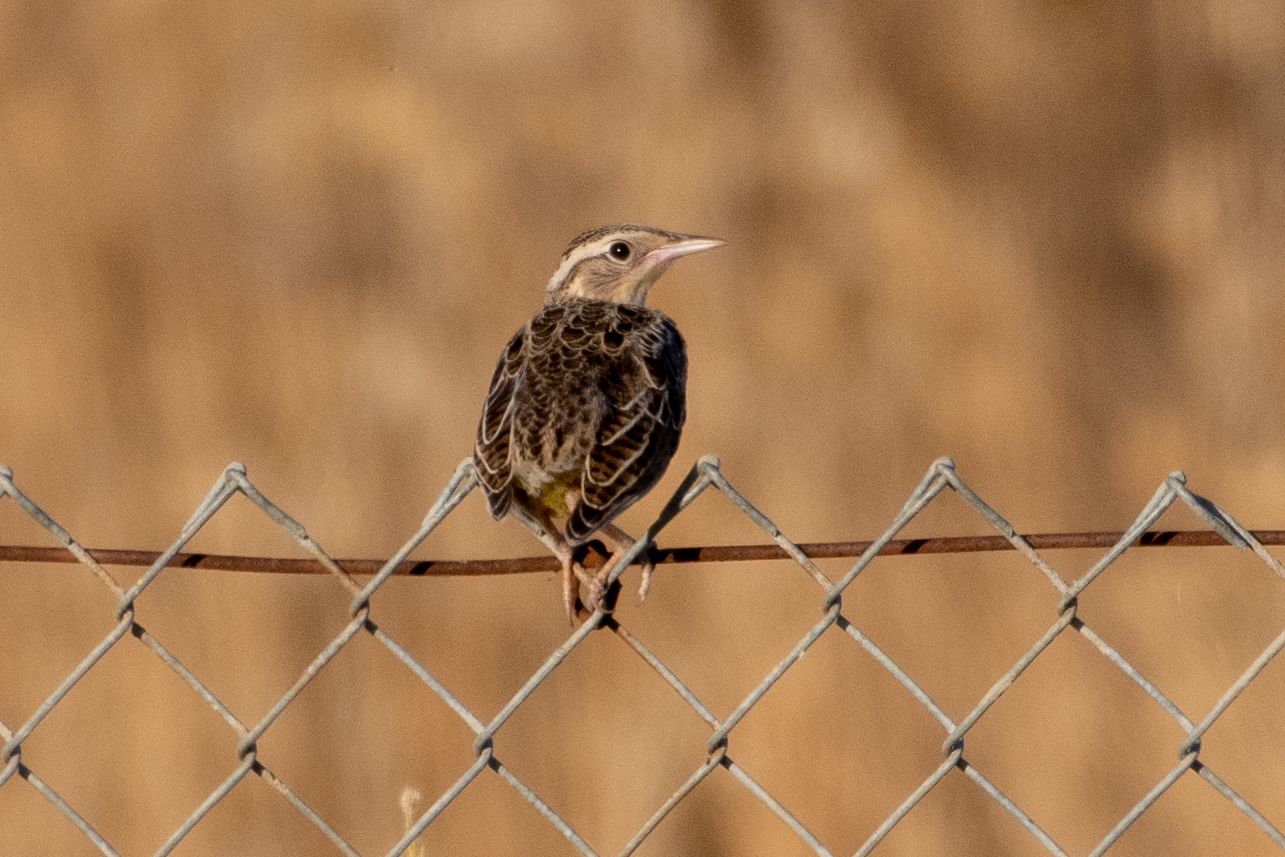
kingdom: Animalia
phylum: Chordata
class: Aves
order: Passeriformes
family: Icteridae
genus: Sturnella
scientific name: Sturnella neglecta
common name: Western meadowlark
